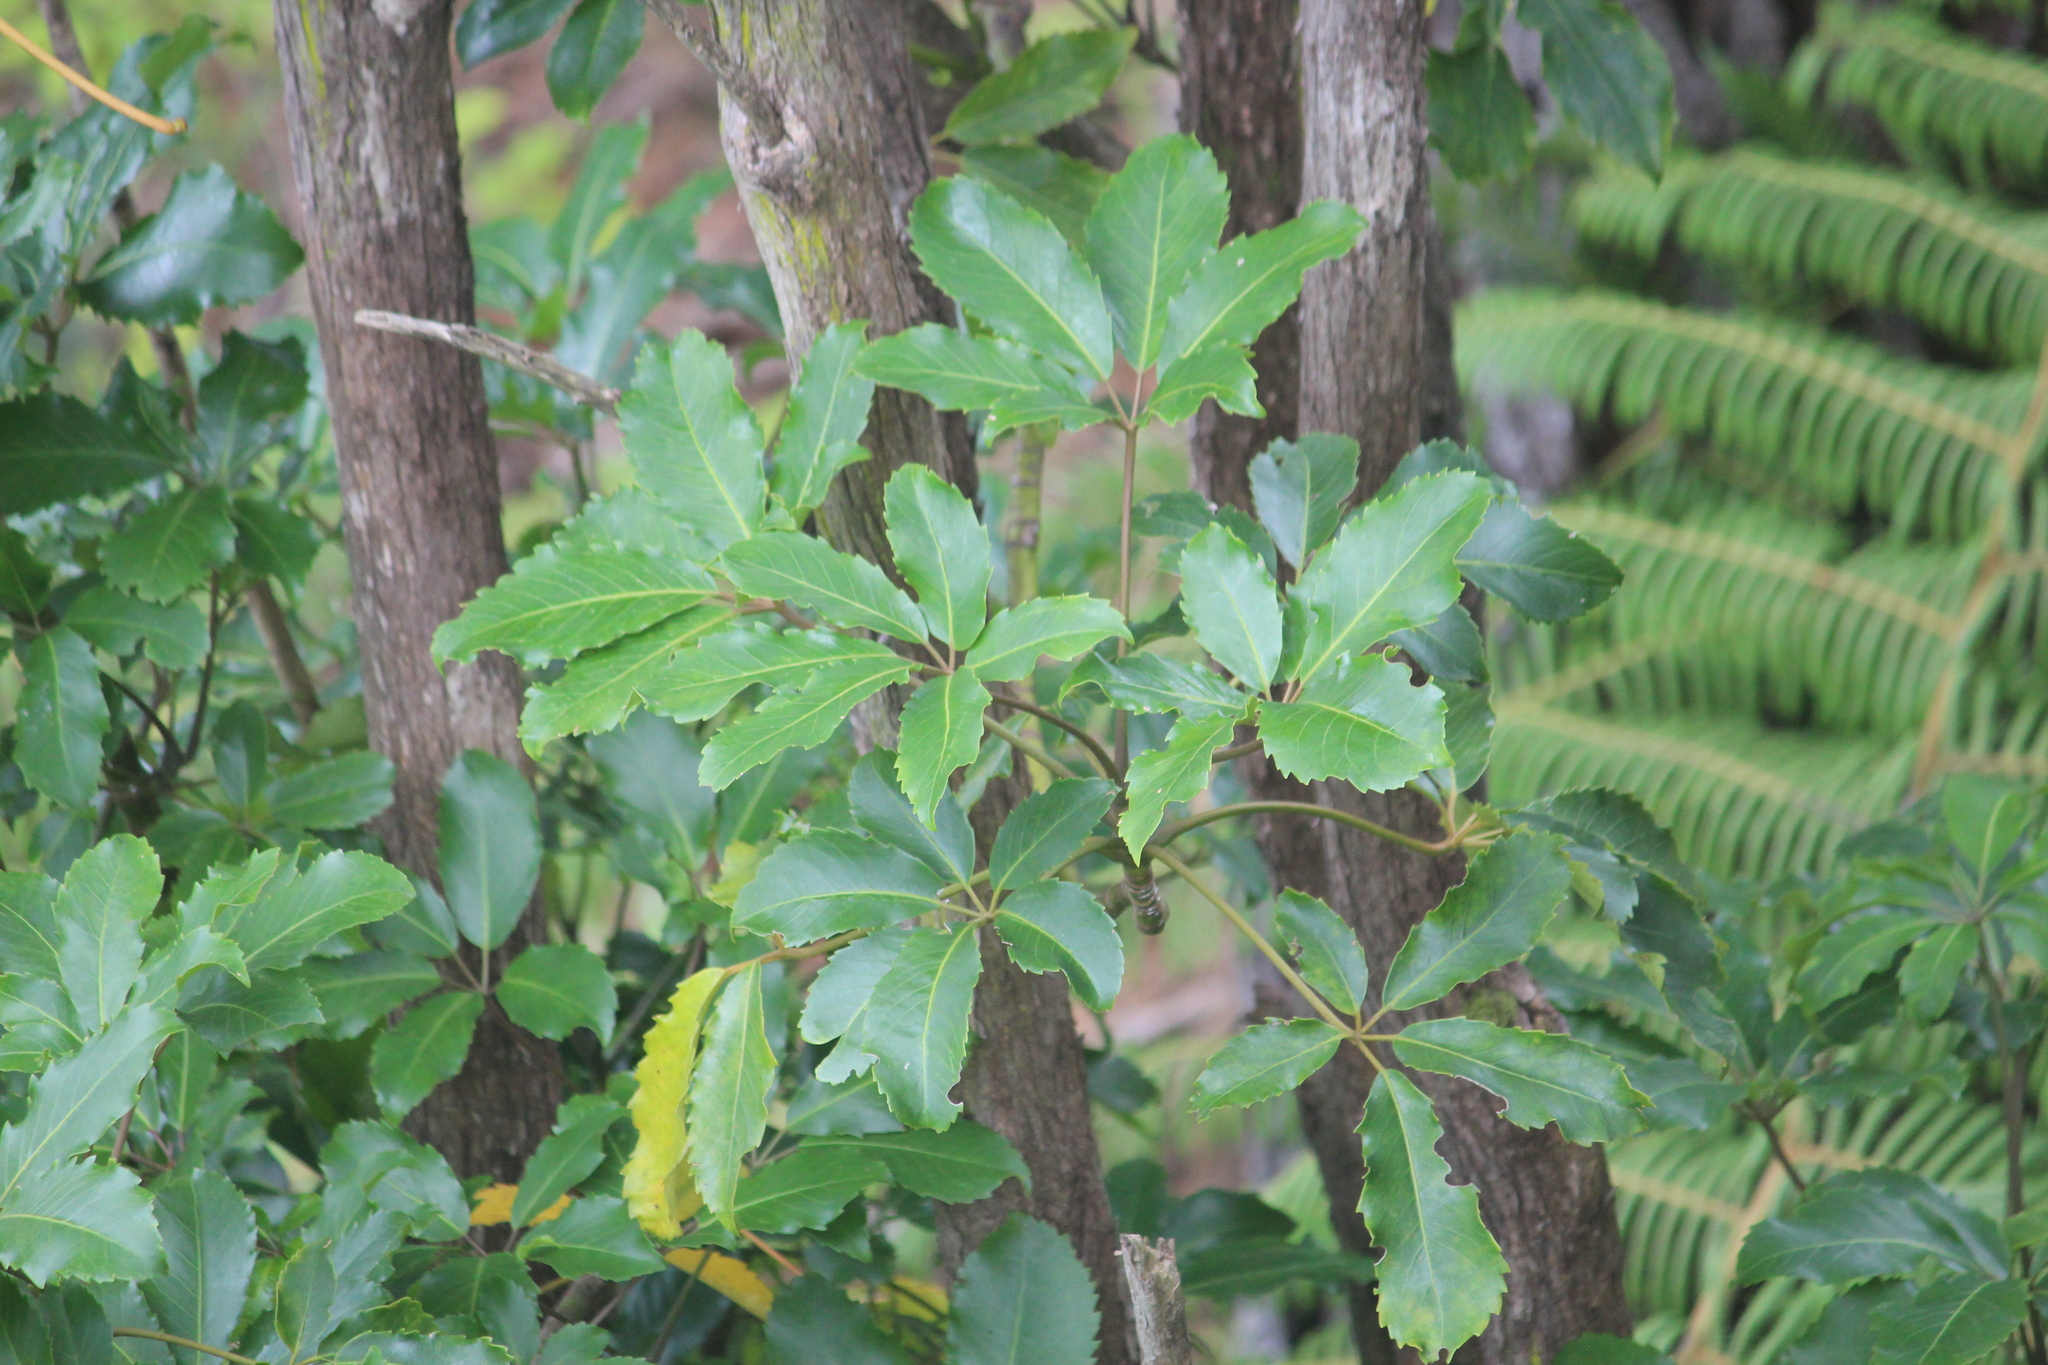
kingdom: Plantae
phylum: Tracheophyta
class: Magnoliopsida
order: Apiales
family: Araliaceae
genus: Neopanax
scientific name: Neopanax arboreus
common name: Five-fingers
